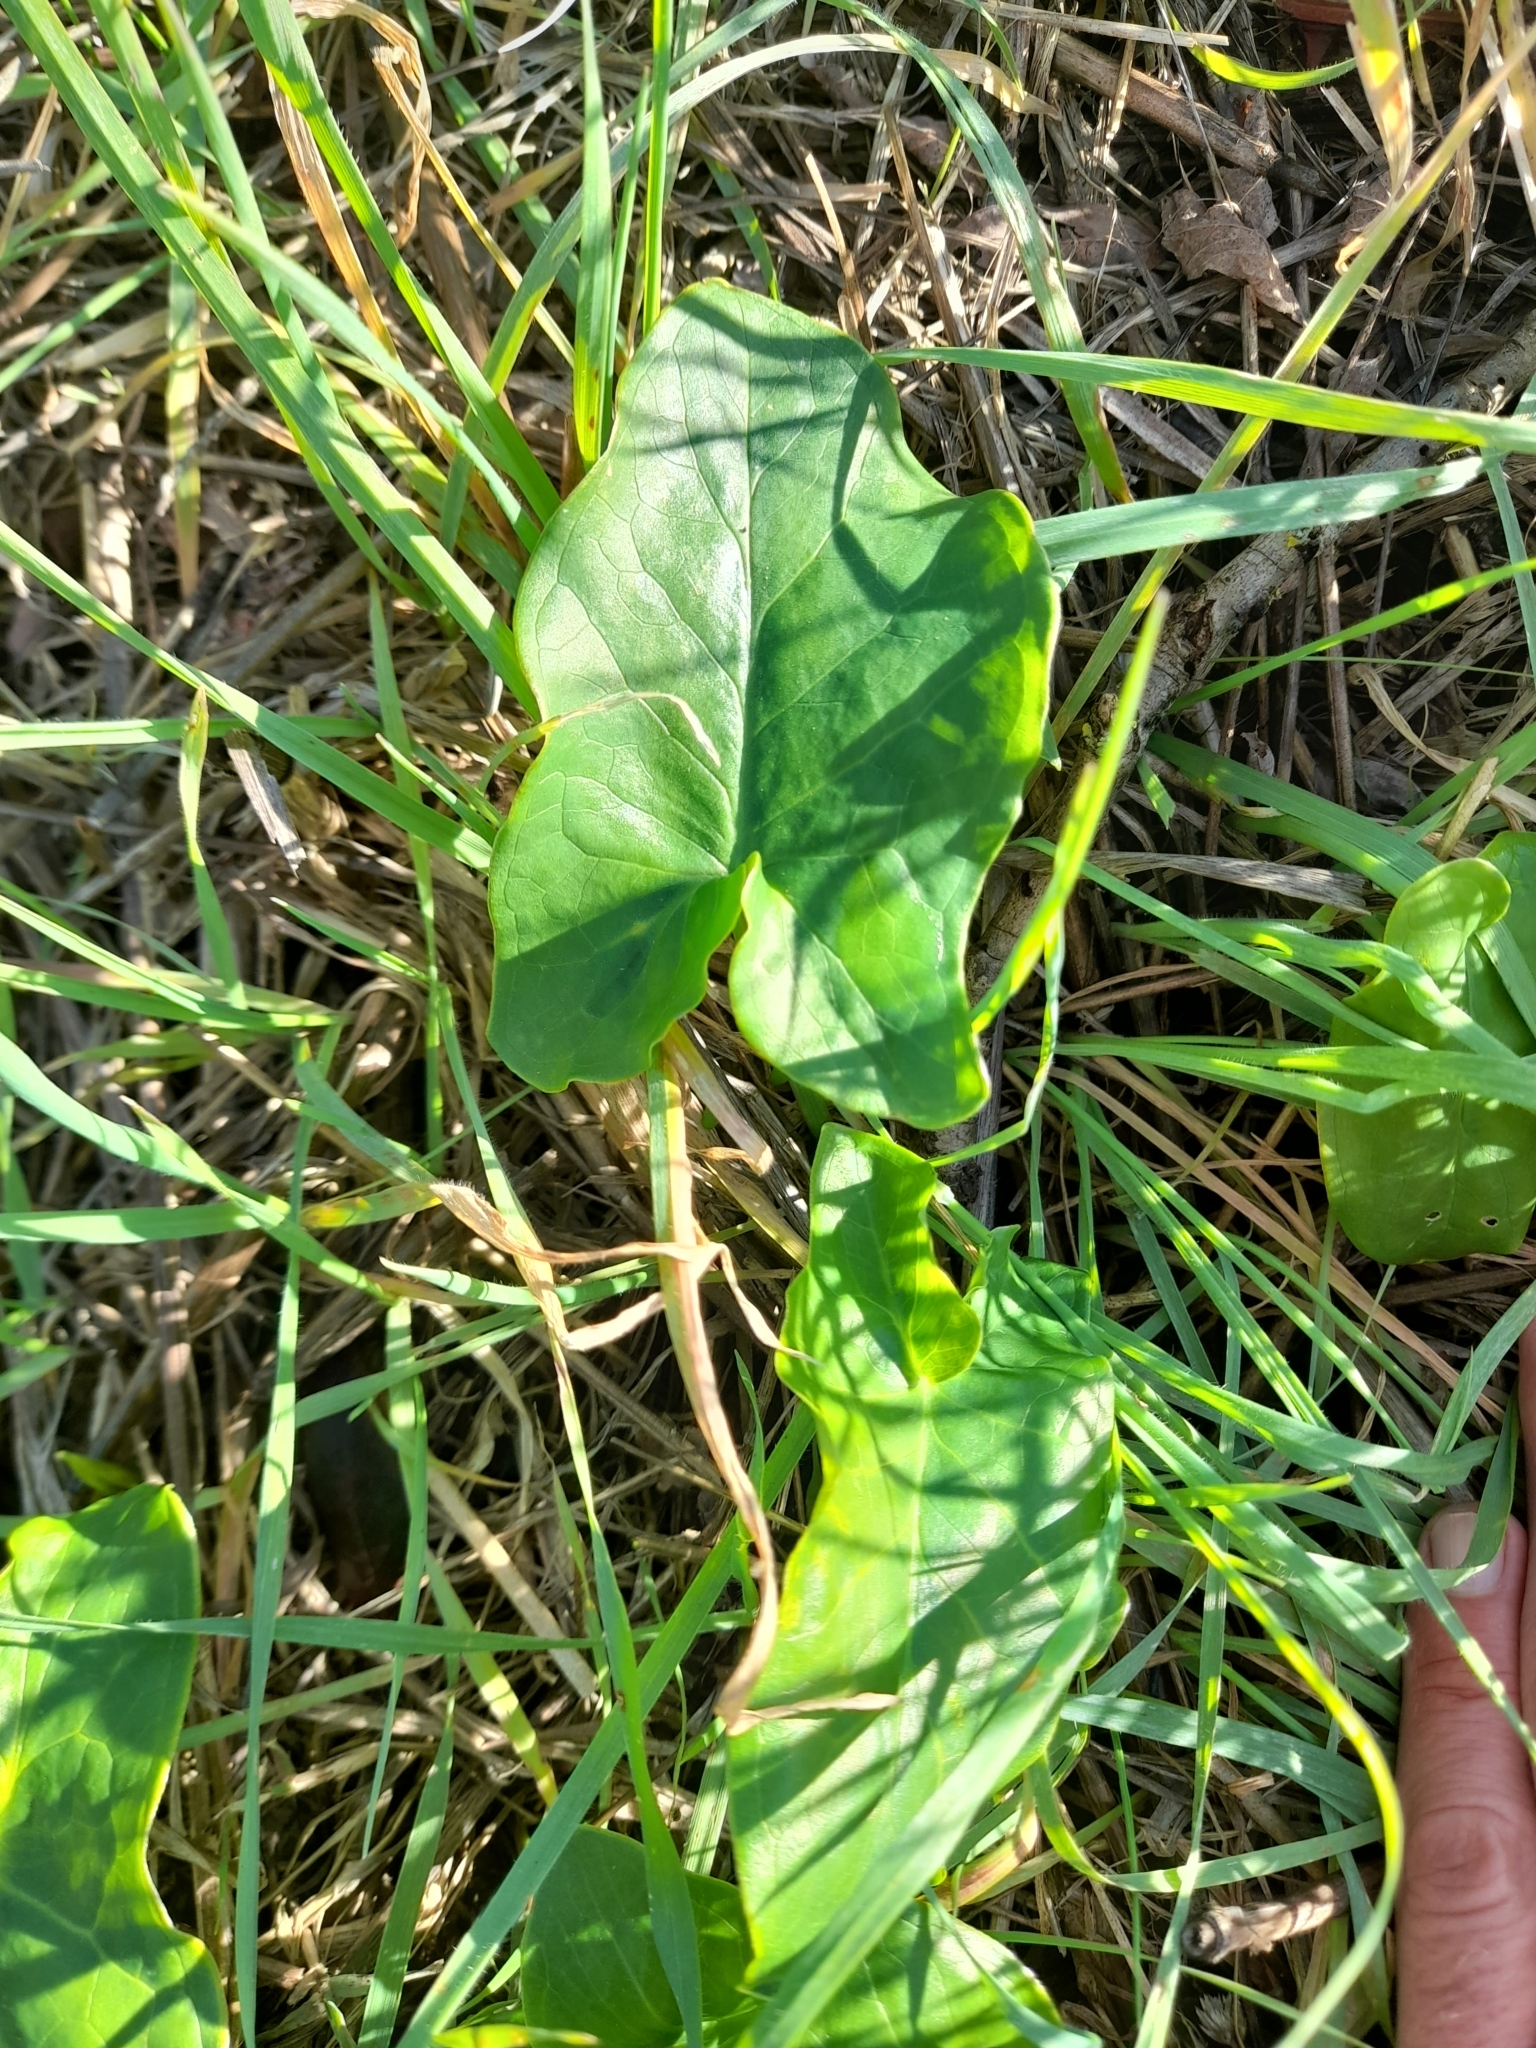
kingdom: Plantae
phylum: Tracheophyta
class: Liliopsida
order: Alismatales
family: Araceae
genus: Arum
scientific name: Arum italicum
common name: Italian lords-and-ladies
